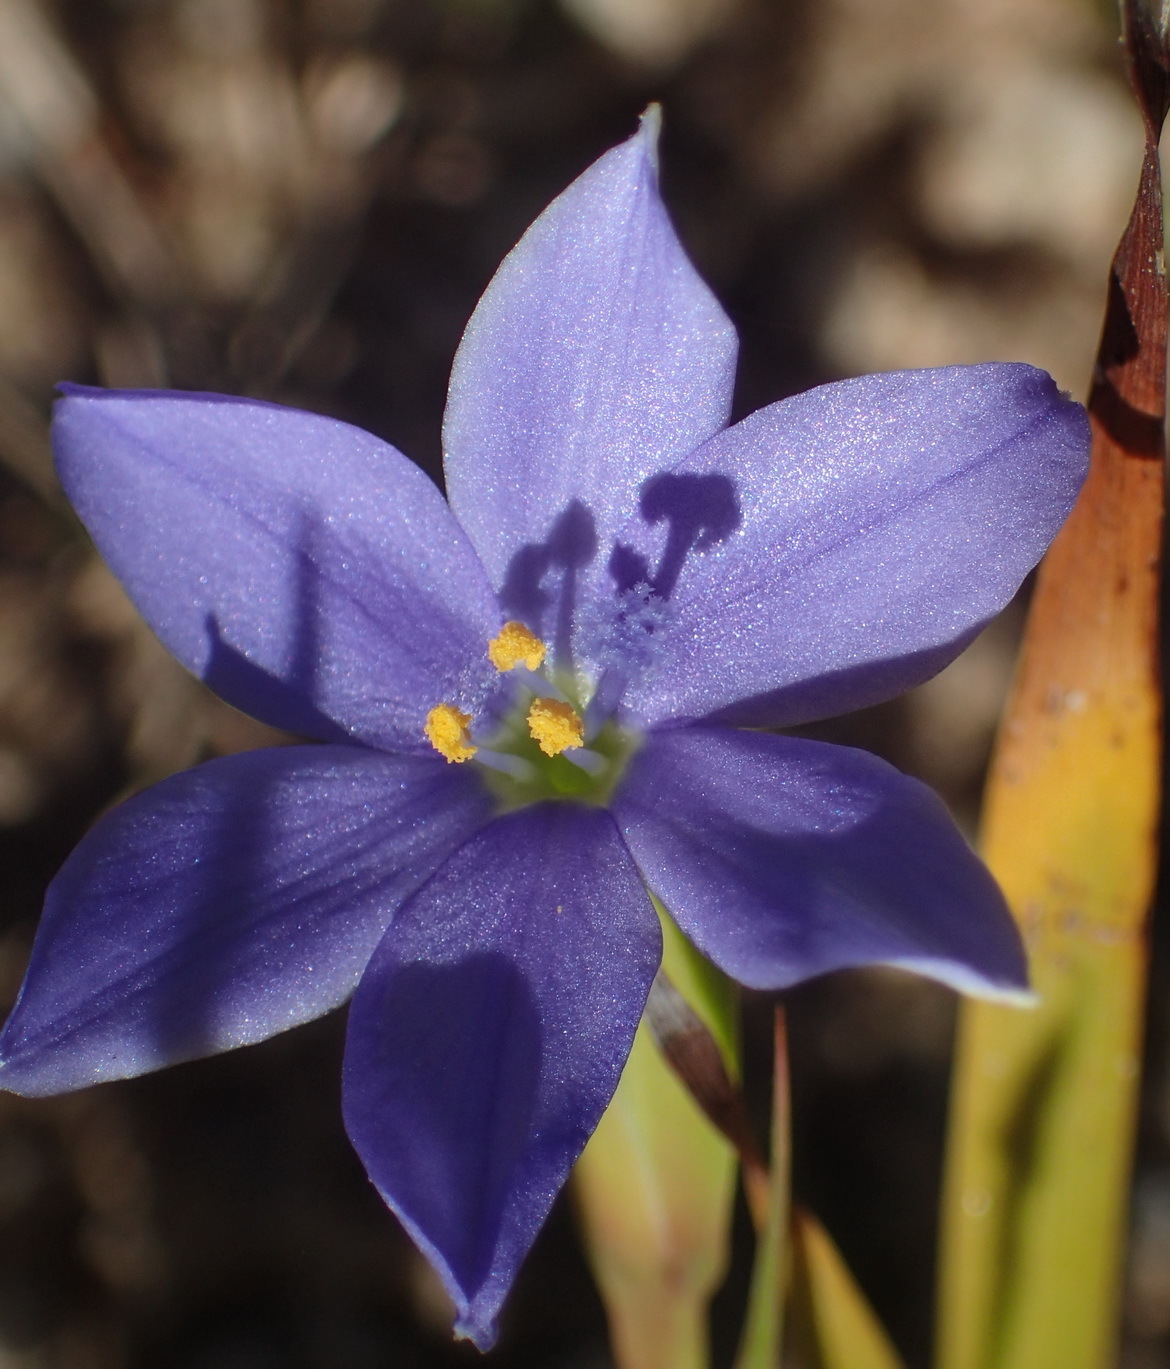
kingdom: Plantae
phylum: Tracheophyta
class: Liliopsida
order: Asparagales
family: Iridaceae
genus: Aristea
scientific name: Aristea pusilla
